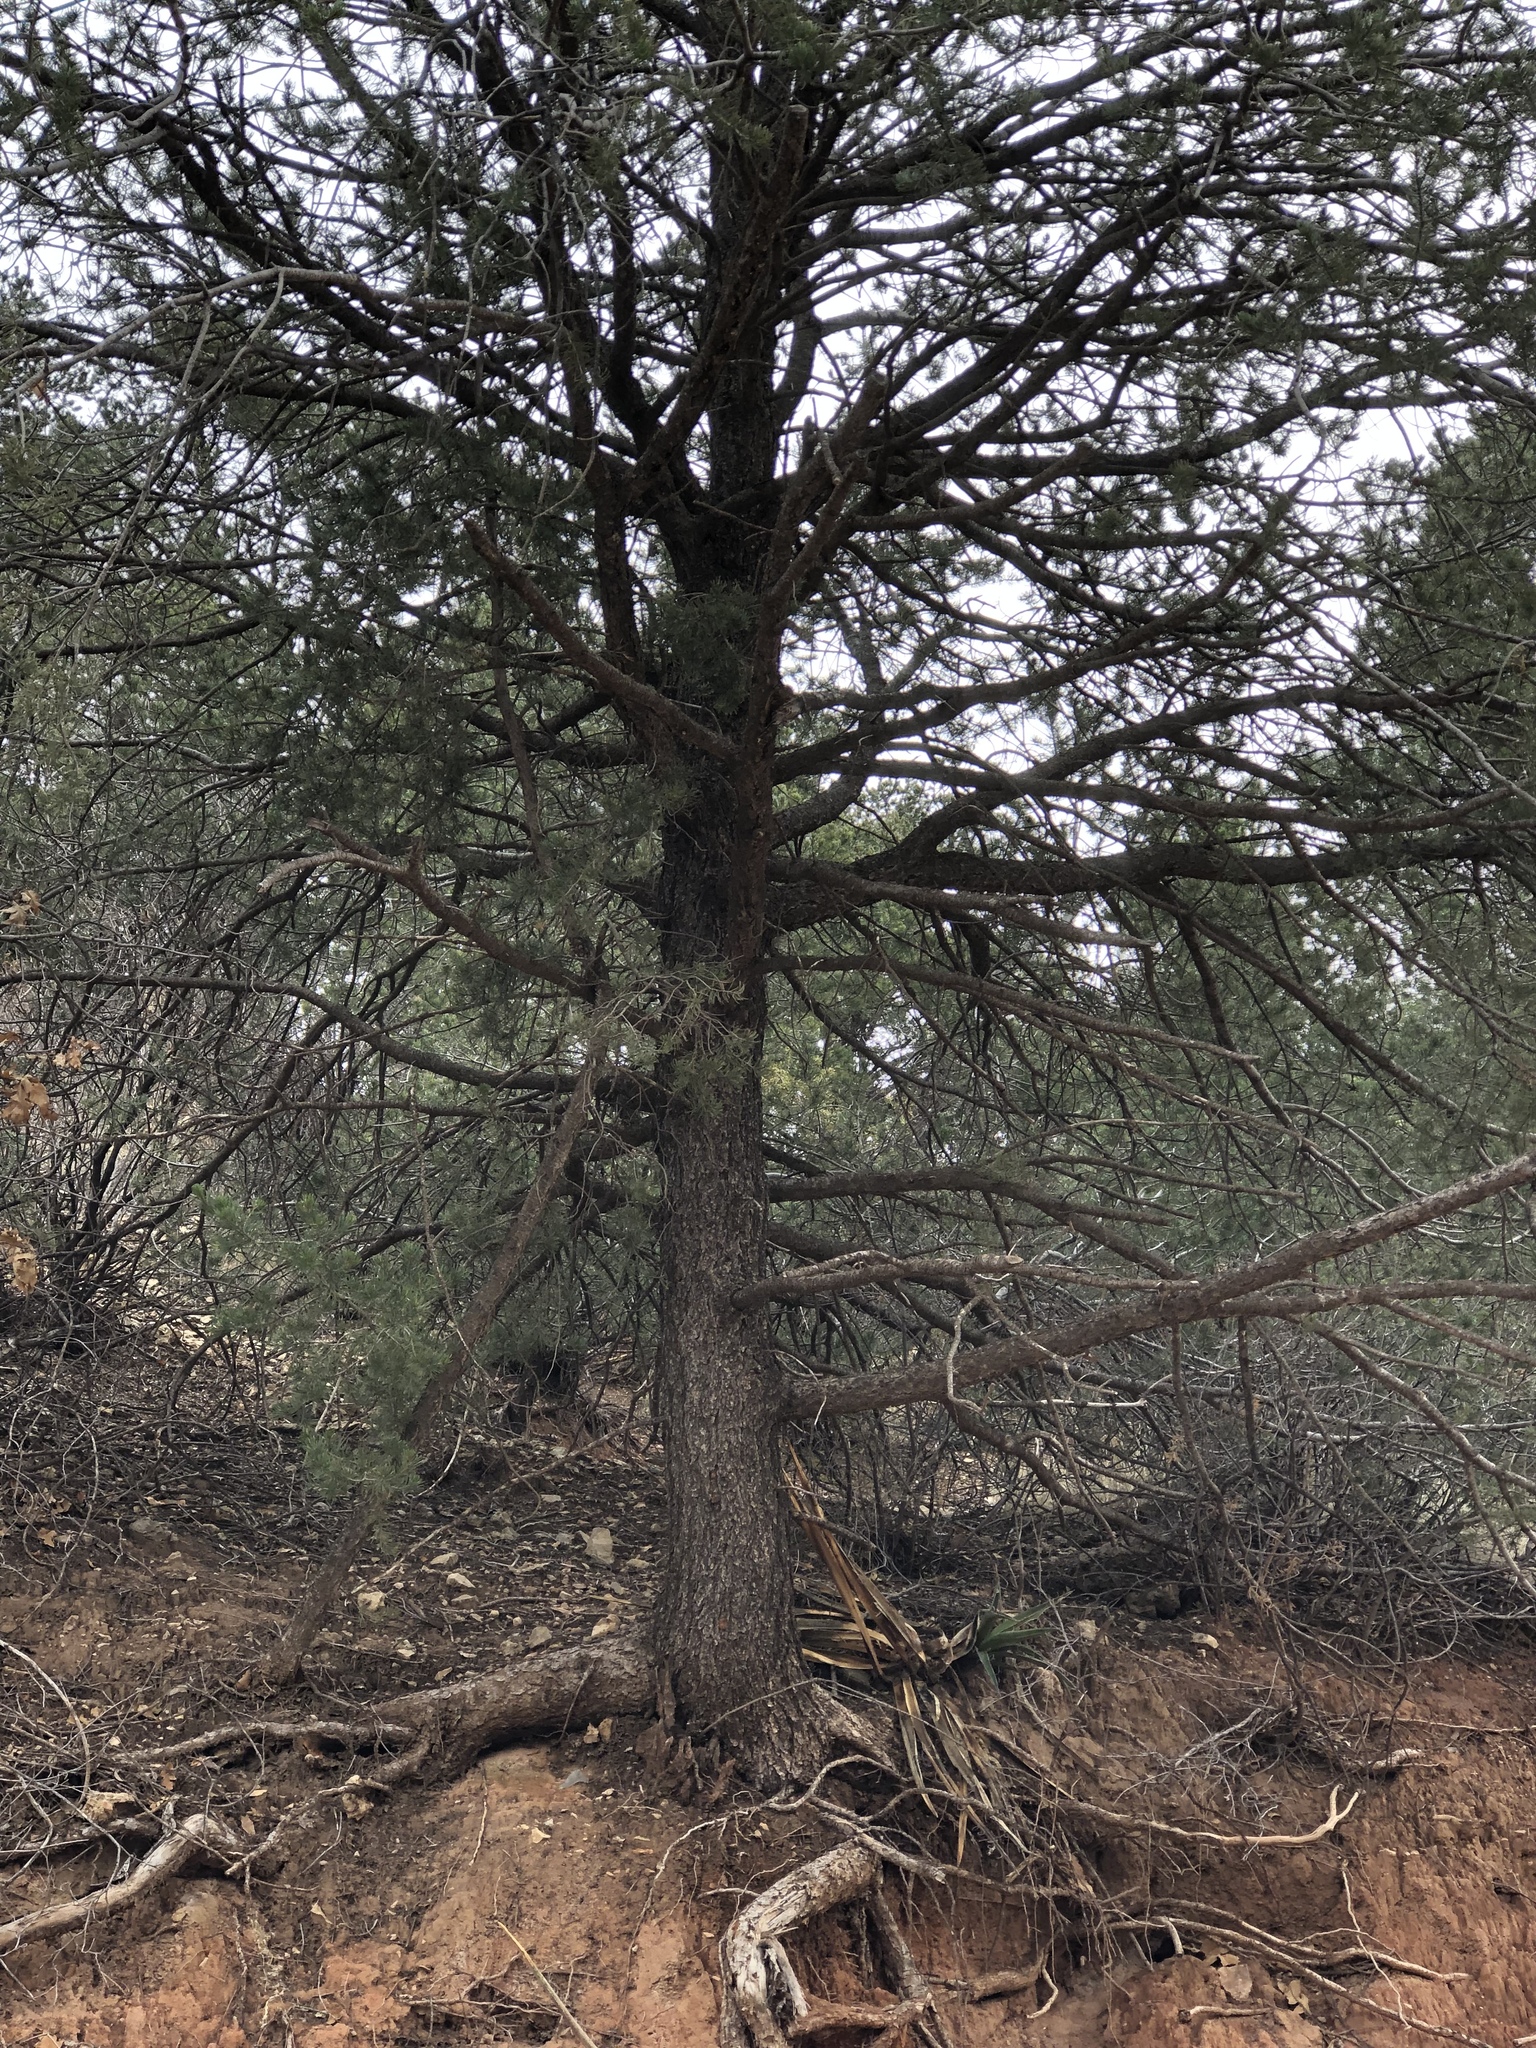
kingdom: Plantae
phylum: Tracheophyta
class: Pinopsida
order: Pinales
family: Pinaceae
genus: Pinus
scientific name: Pinus edulis
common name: Colorado pinyon
